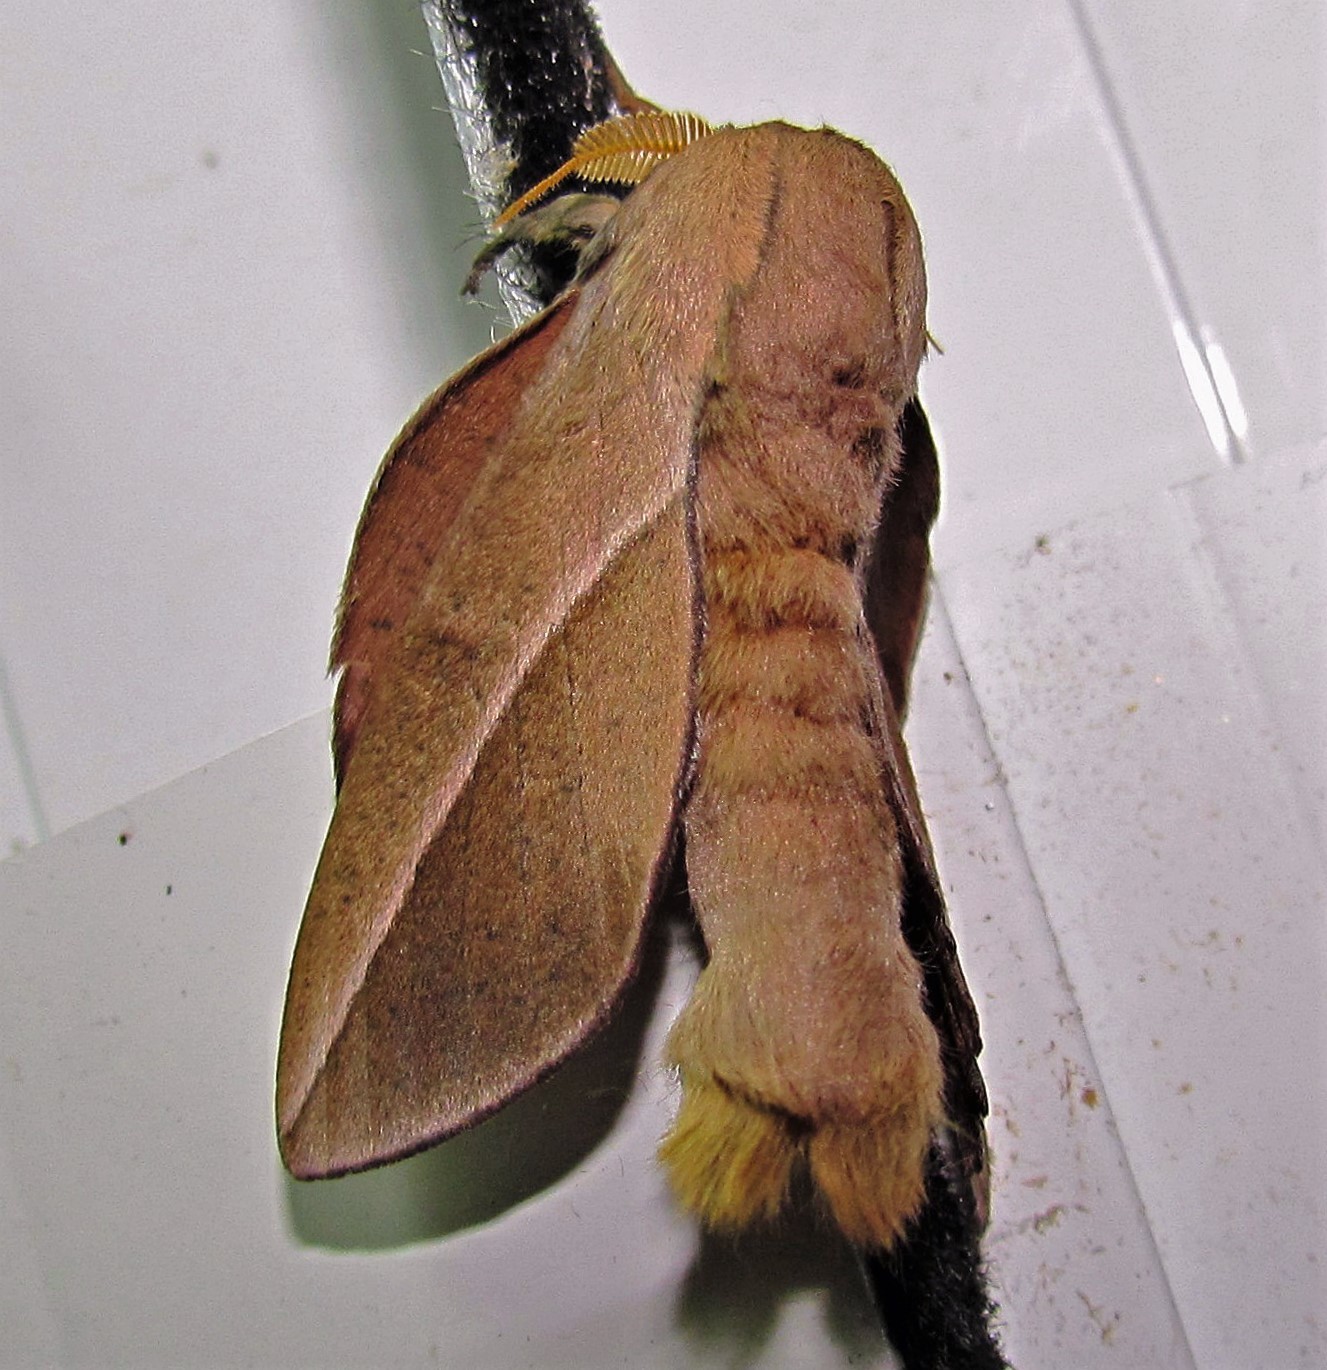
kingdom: Animalia
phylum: Arthropoda
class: Insecta
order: Lepidoptera
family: Saturniidae
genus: Oiticella
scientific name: Oiticella luteciae
